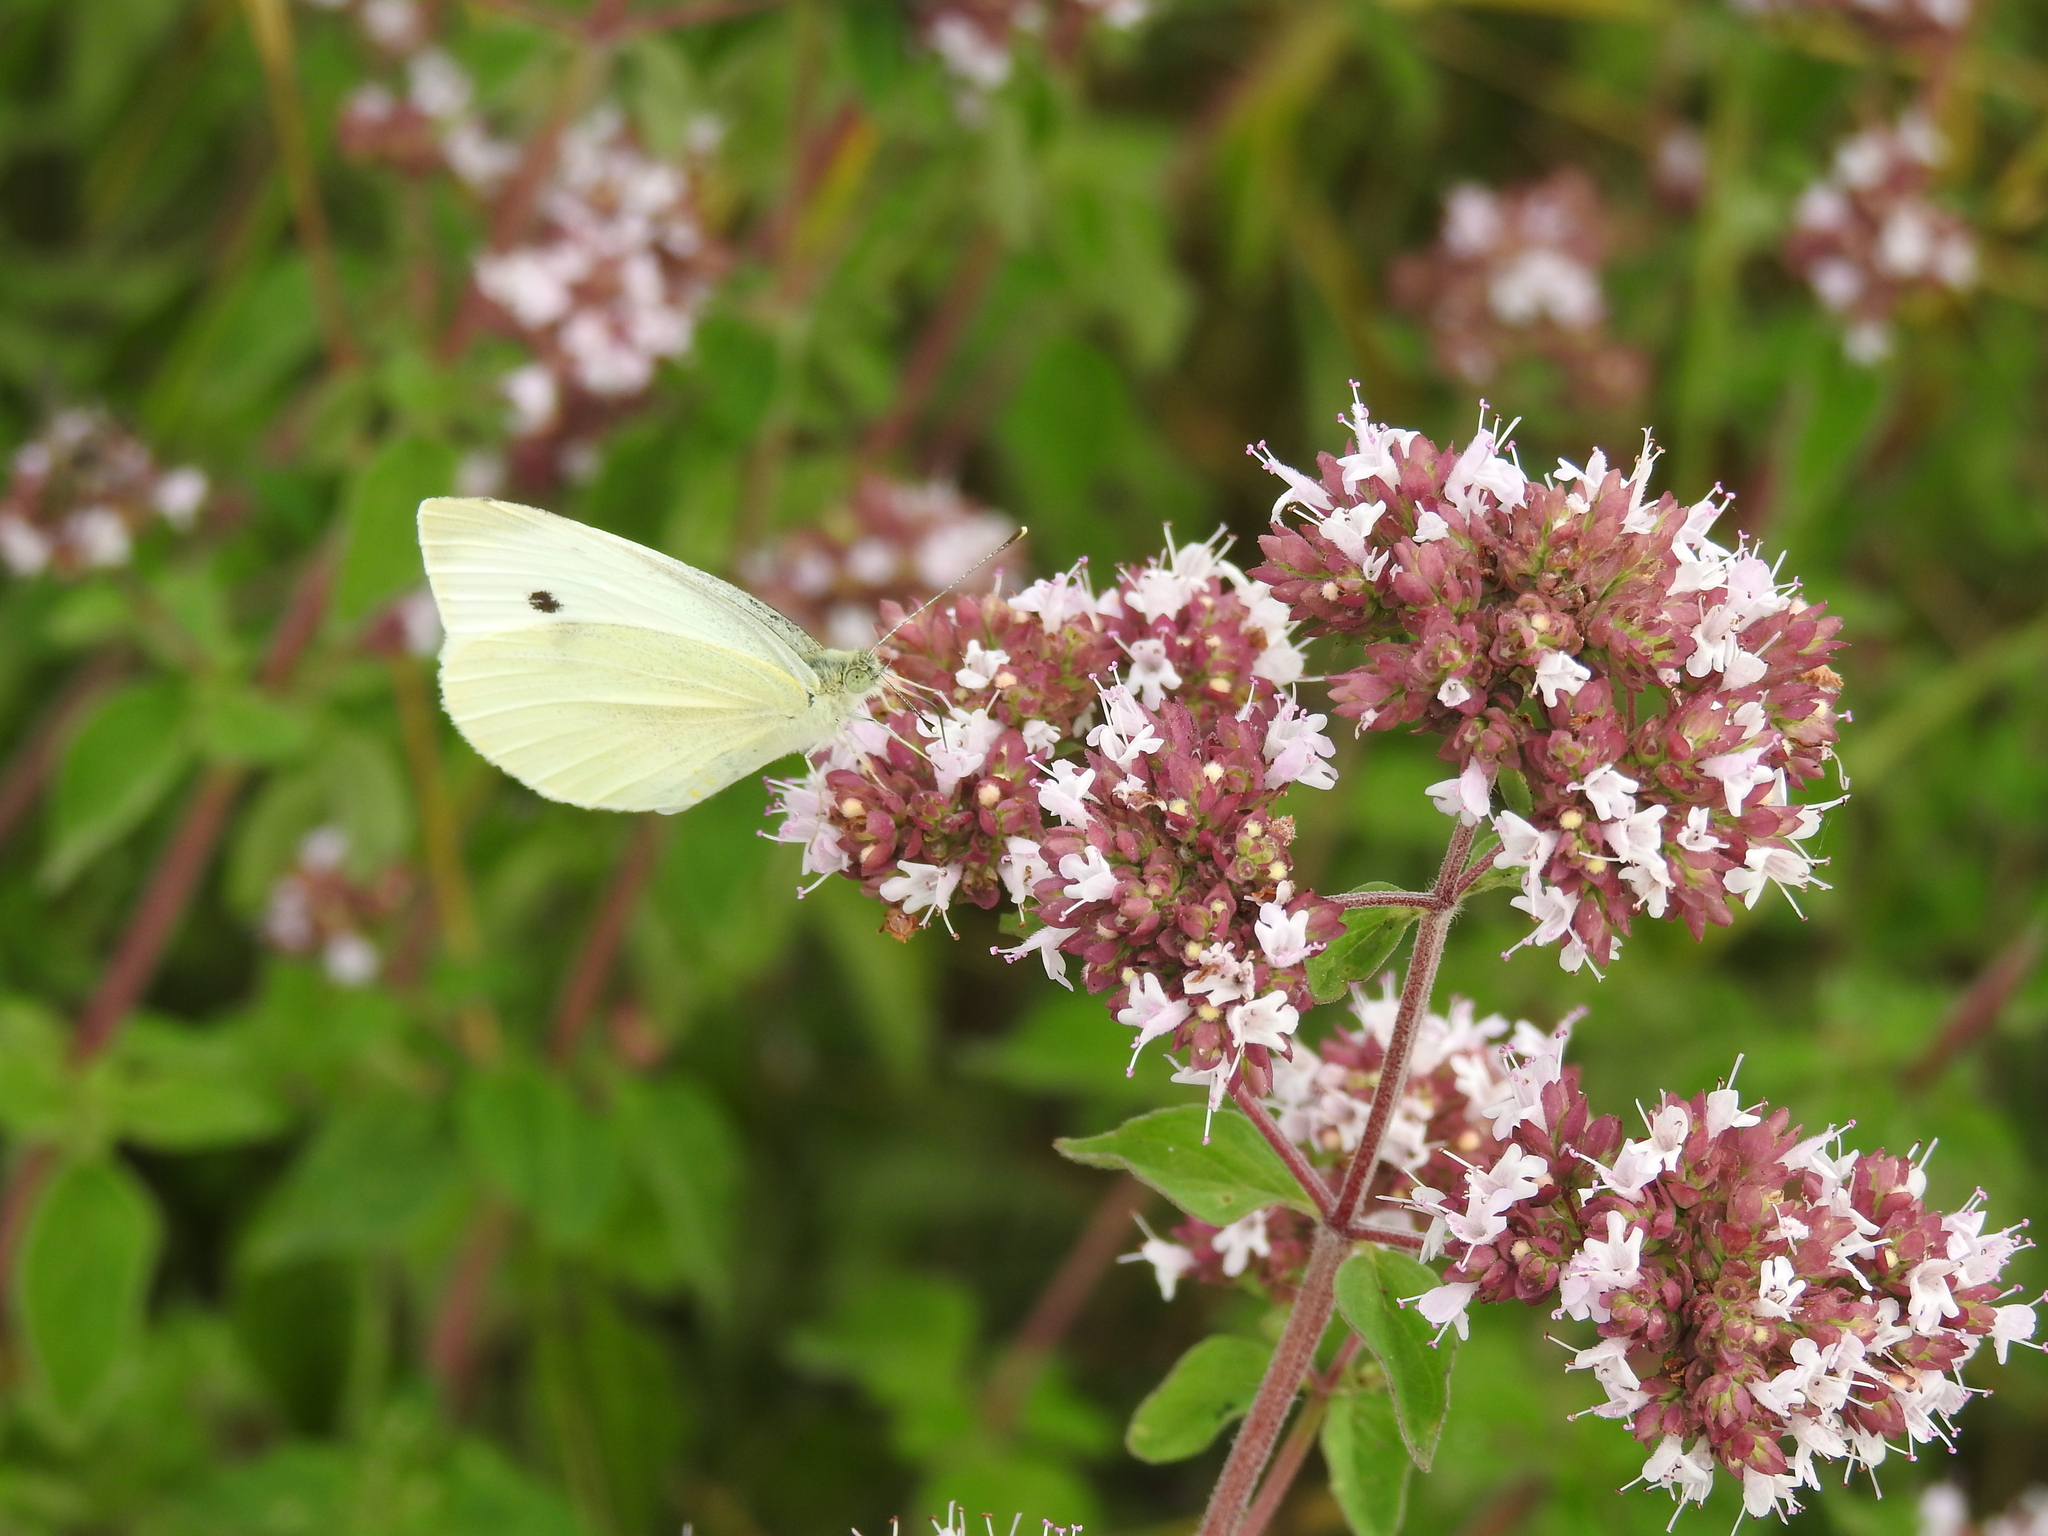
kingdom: Animalia
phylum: Arthropoda
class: Insecta
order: Lepidoptera
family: Pieridae
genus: Pieris
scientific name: Pieris rapae
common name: Small white
